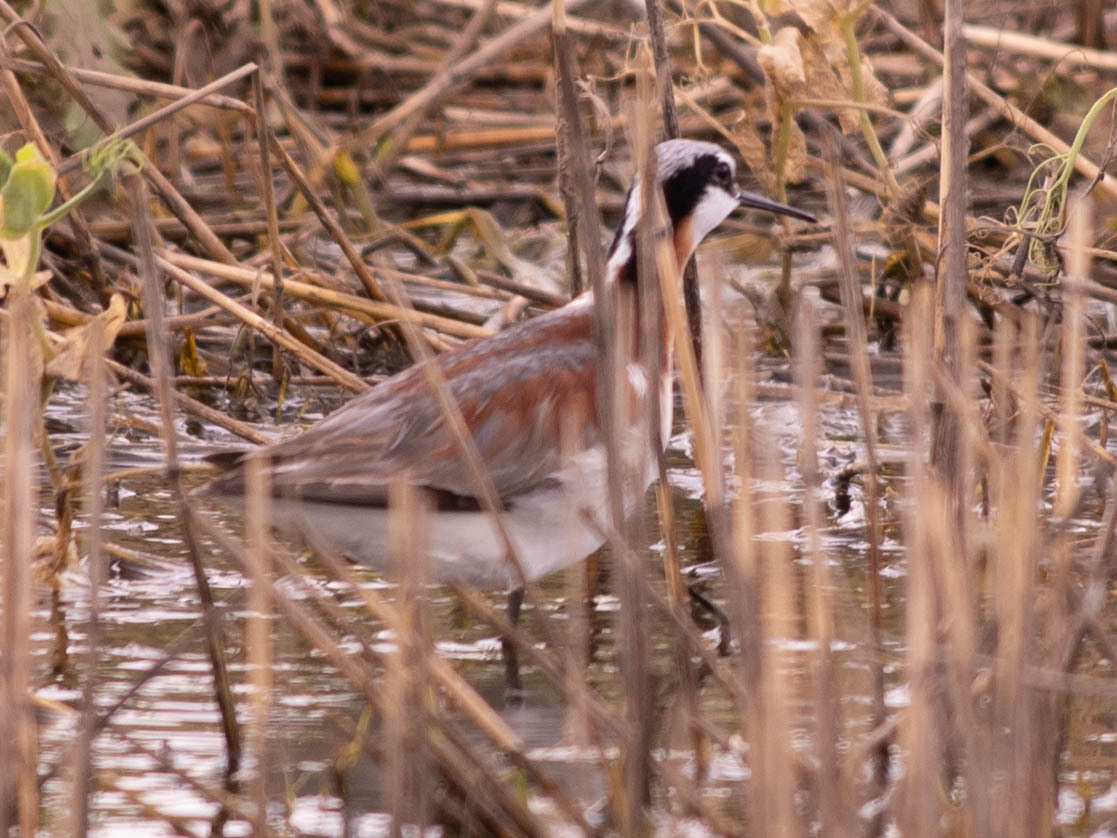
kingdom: Animalia
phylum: Chordata
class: Aves
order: Charadriiformes
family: Scolopacidae
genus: Phalaropus
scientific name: Phalaropus tricolor
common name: Wilson's phalarope
